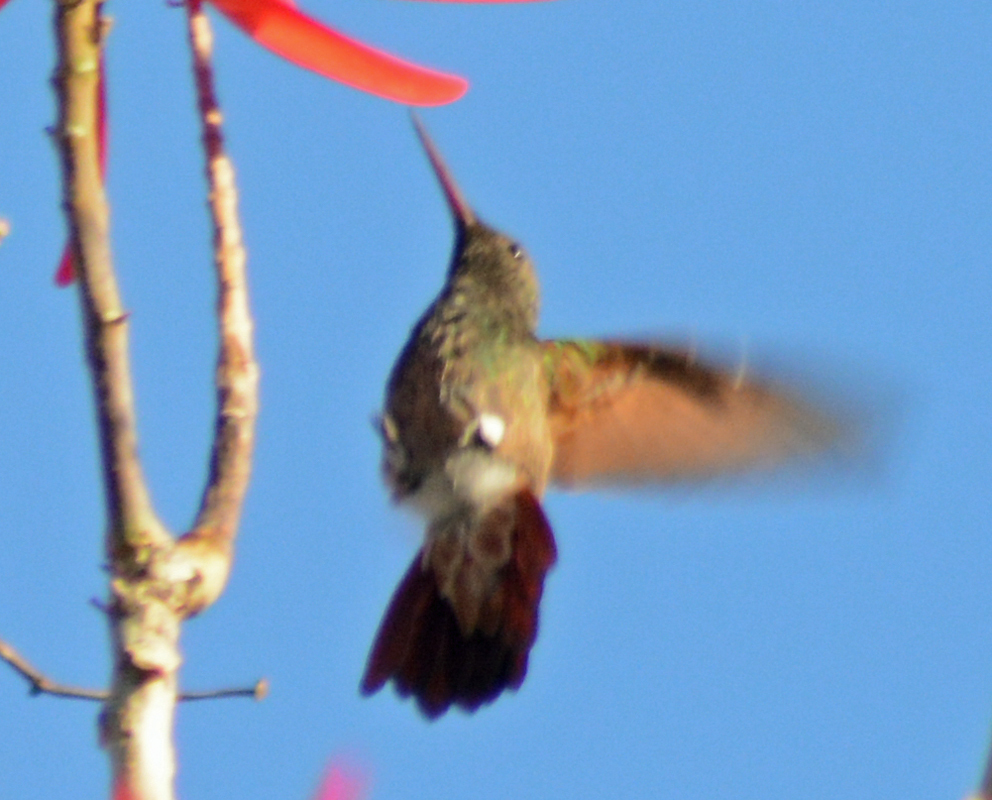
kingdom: Animalia
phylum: Chordata
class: Aves
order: Apodiformes
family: Trochilidae
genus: Saucerottia
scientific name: Saucerottia beryllina
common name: Berylline hummingbird
